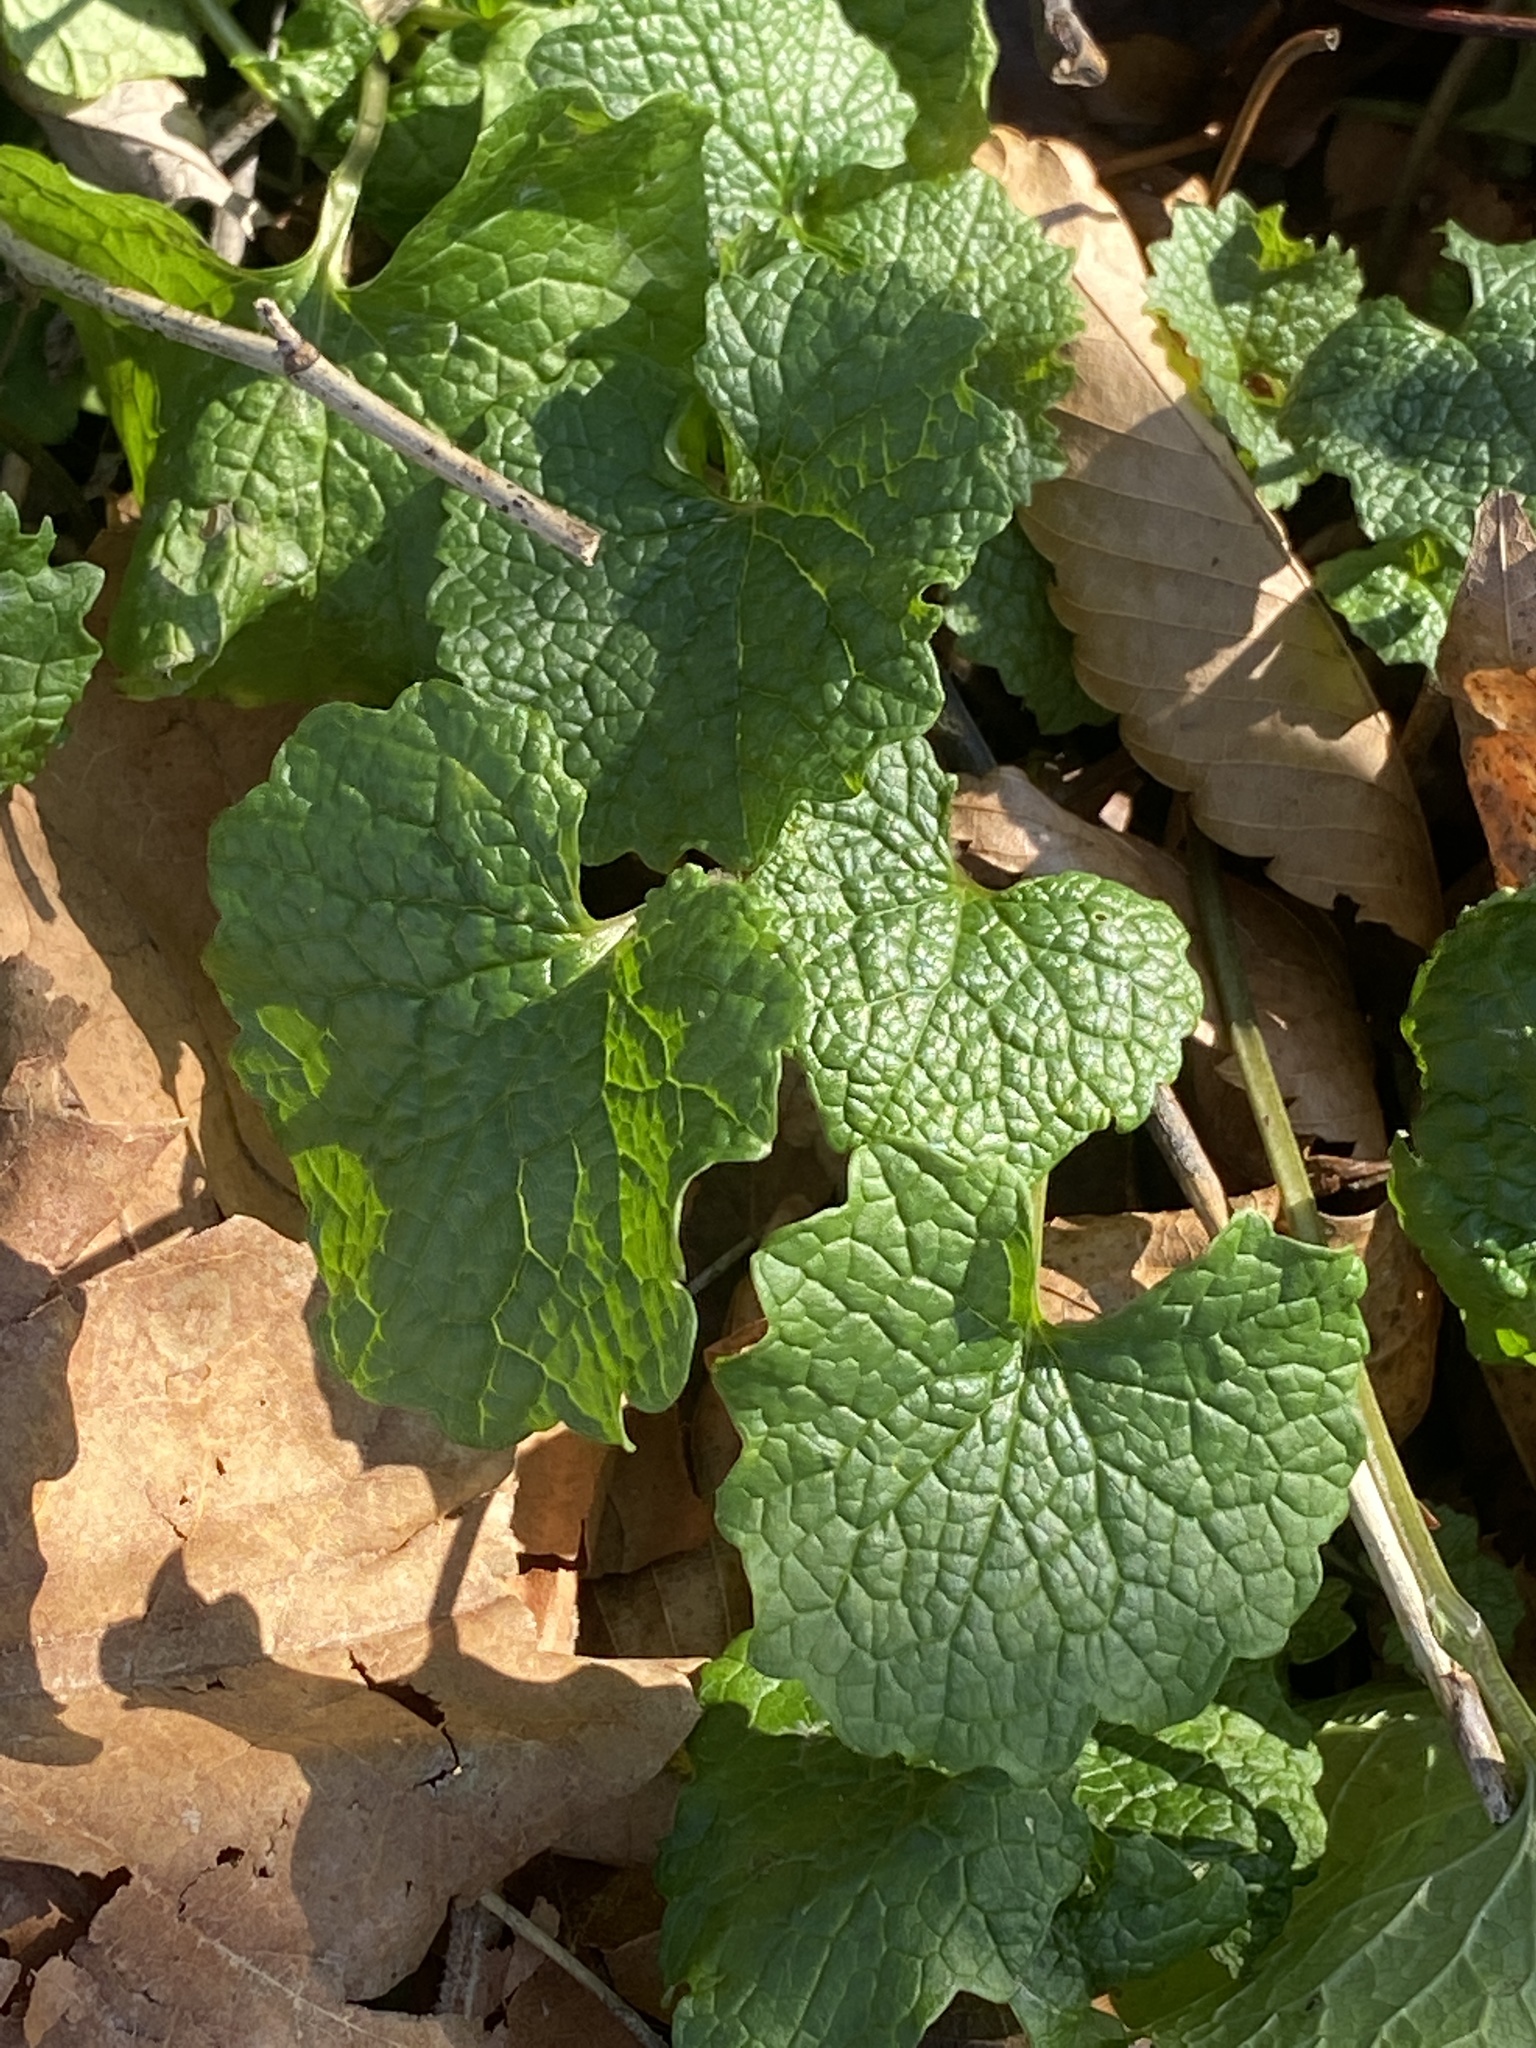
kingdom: Plantae
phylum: Tracheophyta
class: Magnoliopsida
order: Brassicales
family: Brassicaceae
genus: Alliaria
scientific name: Alliaria petiolata
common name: Garlic mustard
